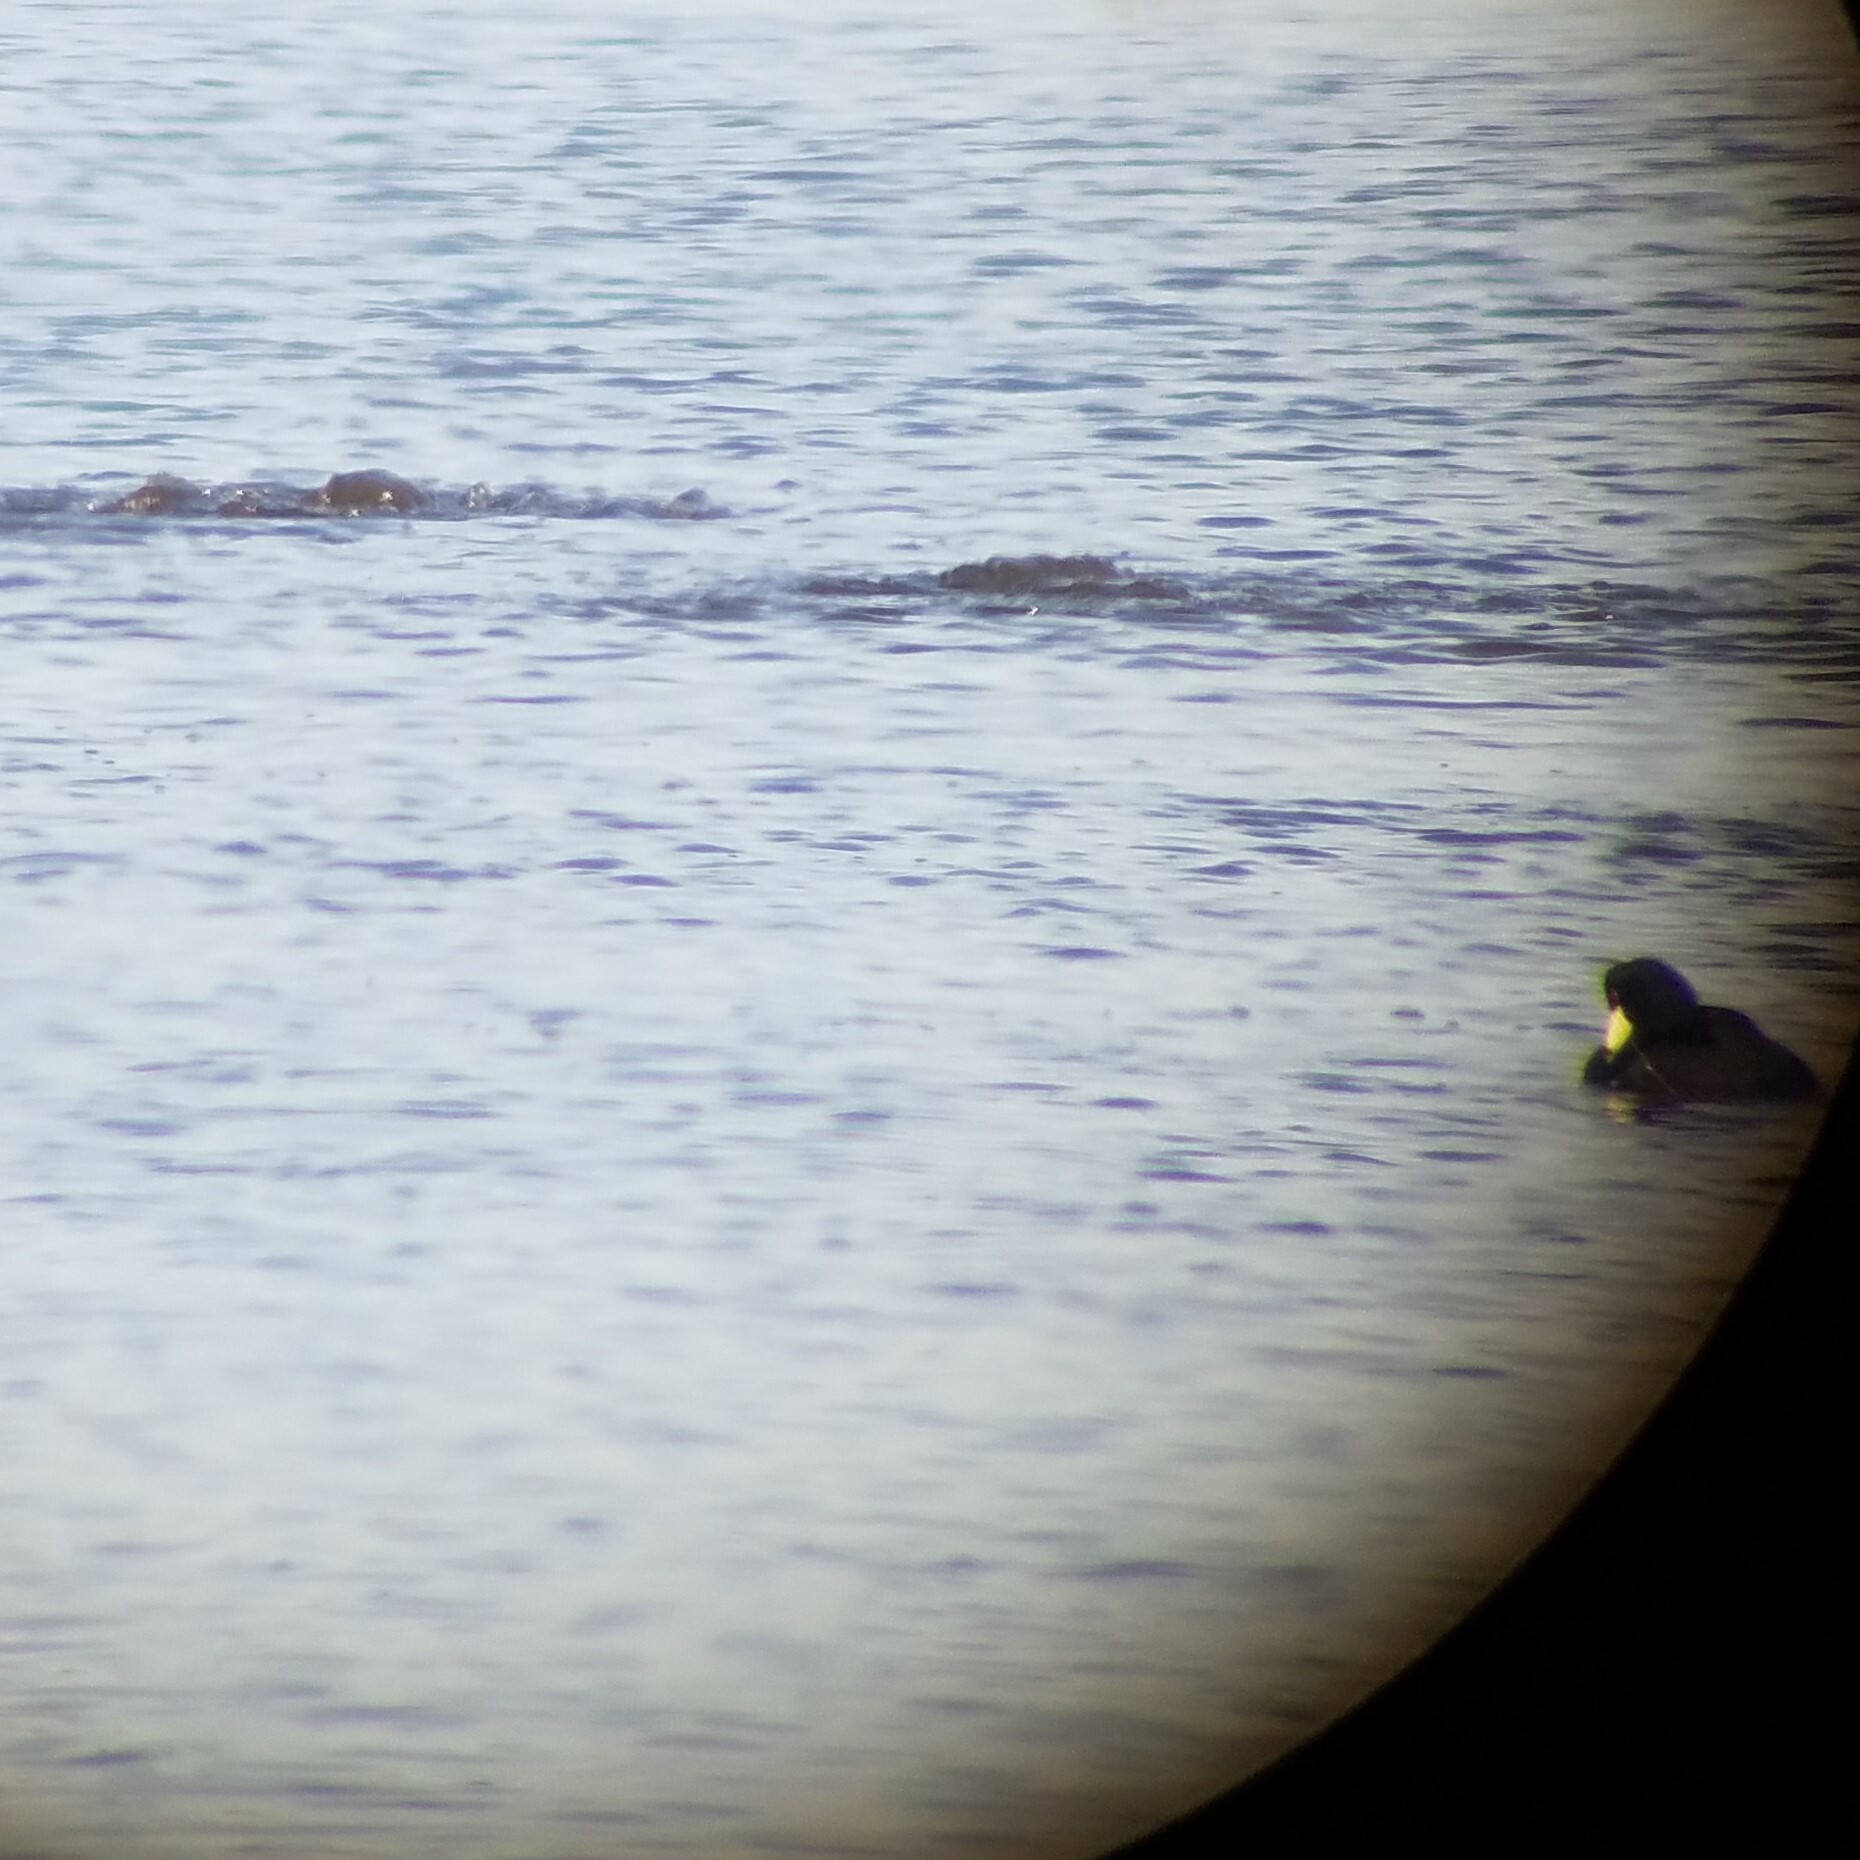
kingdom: Animalia
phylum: Chordata
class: Aves
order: Gruiformes
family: Rallidae
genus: Fulica
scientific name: Fulica americana
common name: American coot
